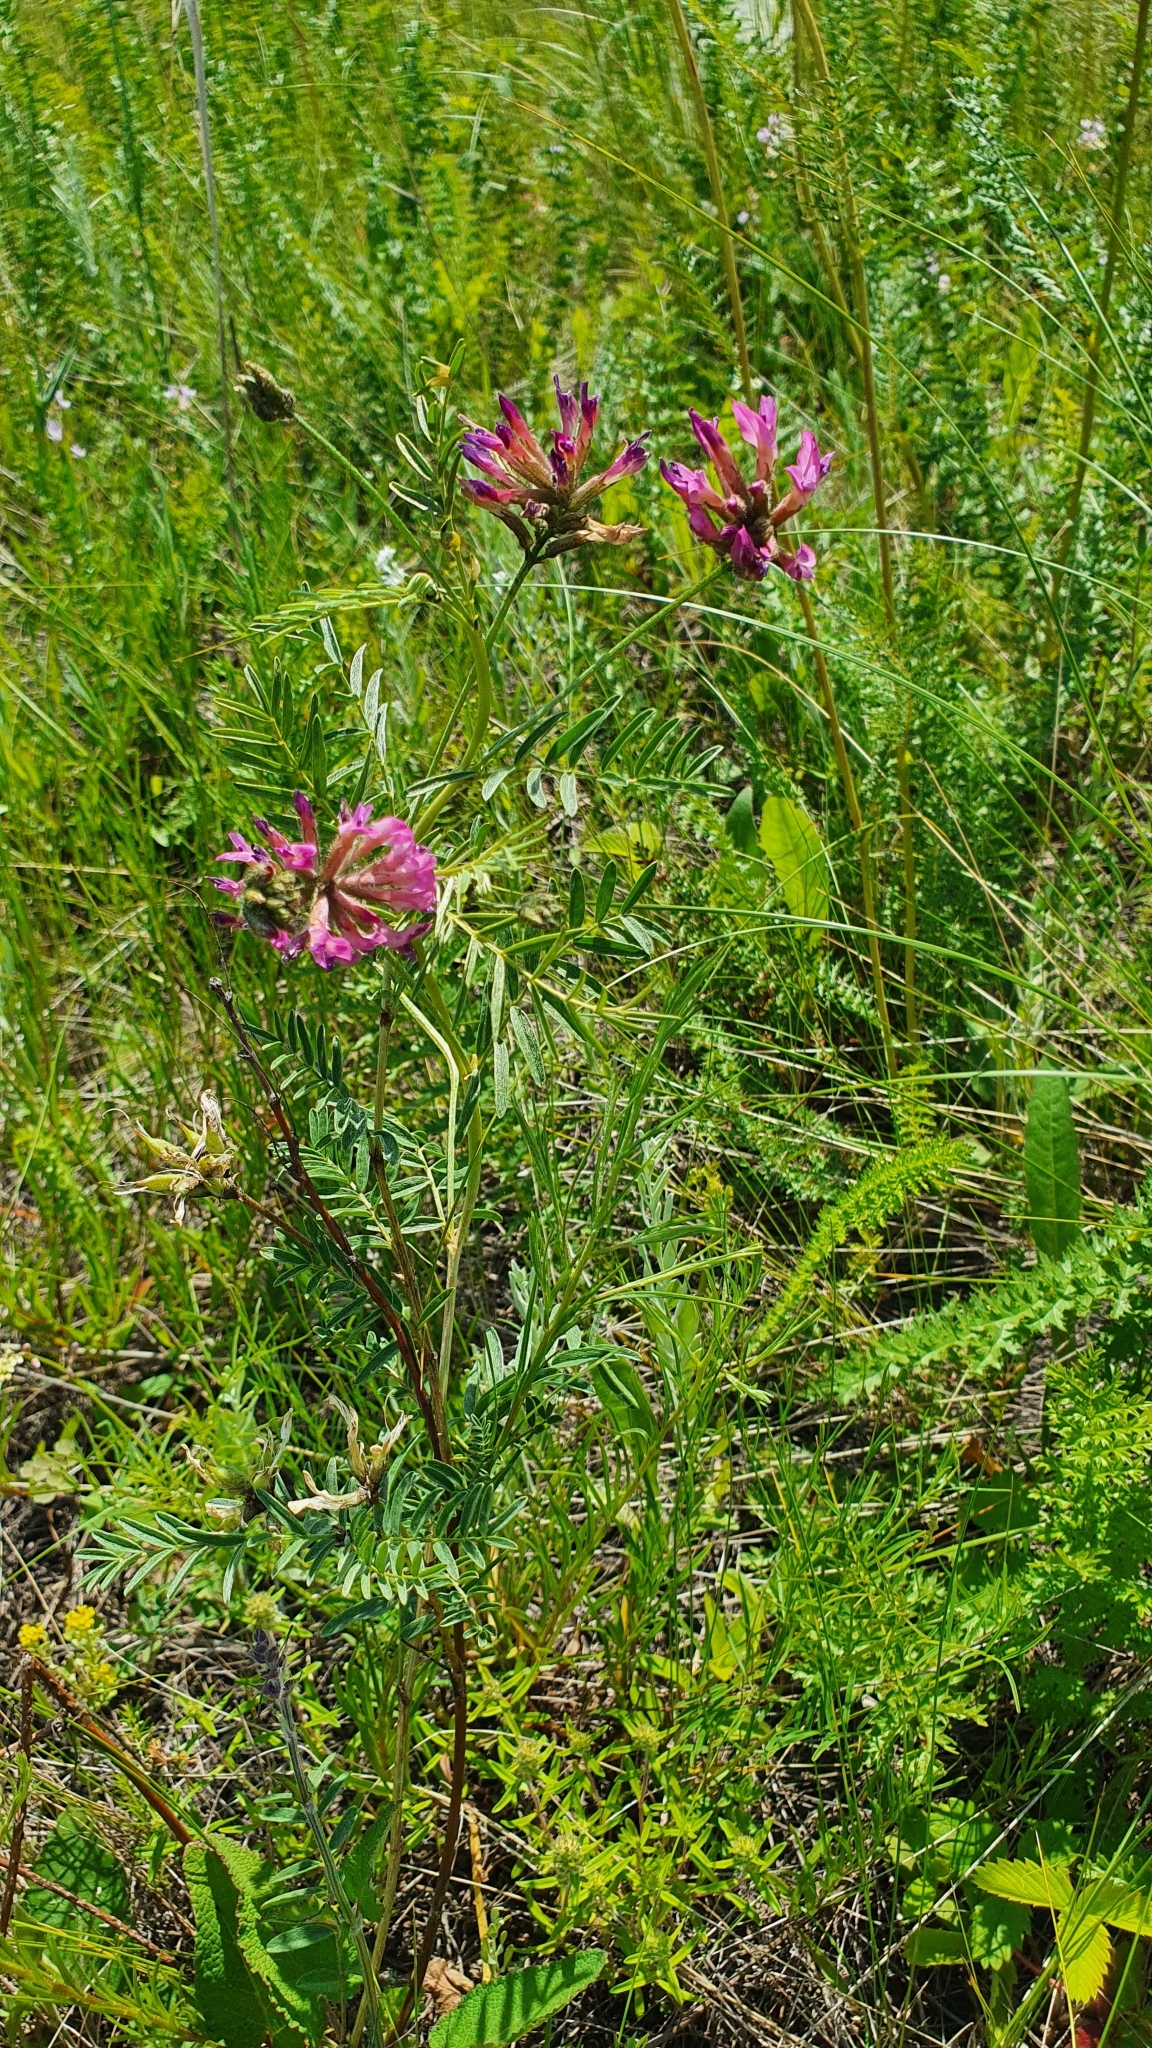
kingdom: Plantae
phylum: Tracheophyta
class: Magnoliopsida
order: Fabales
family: Fabaceae
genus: Astragalus
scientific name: Astragalus cornutus
